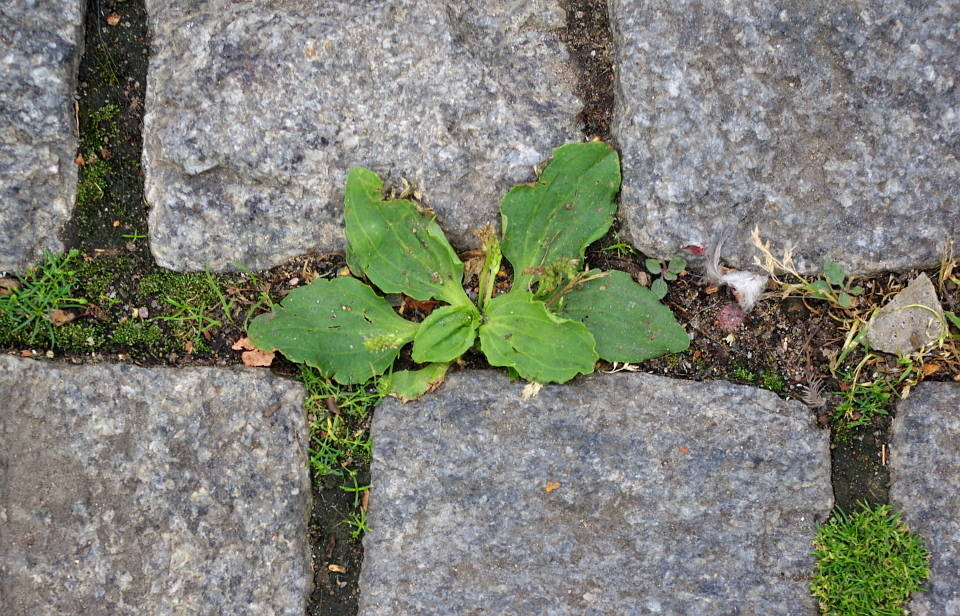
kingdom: Plantae
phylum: Tracheophyta
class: Magnoliopsida
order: Lamiales
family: Plantaginaceae
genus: Plantago
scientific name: Plantago major
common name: Common plantain
